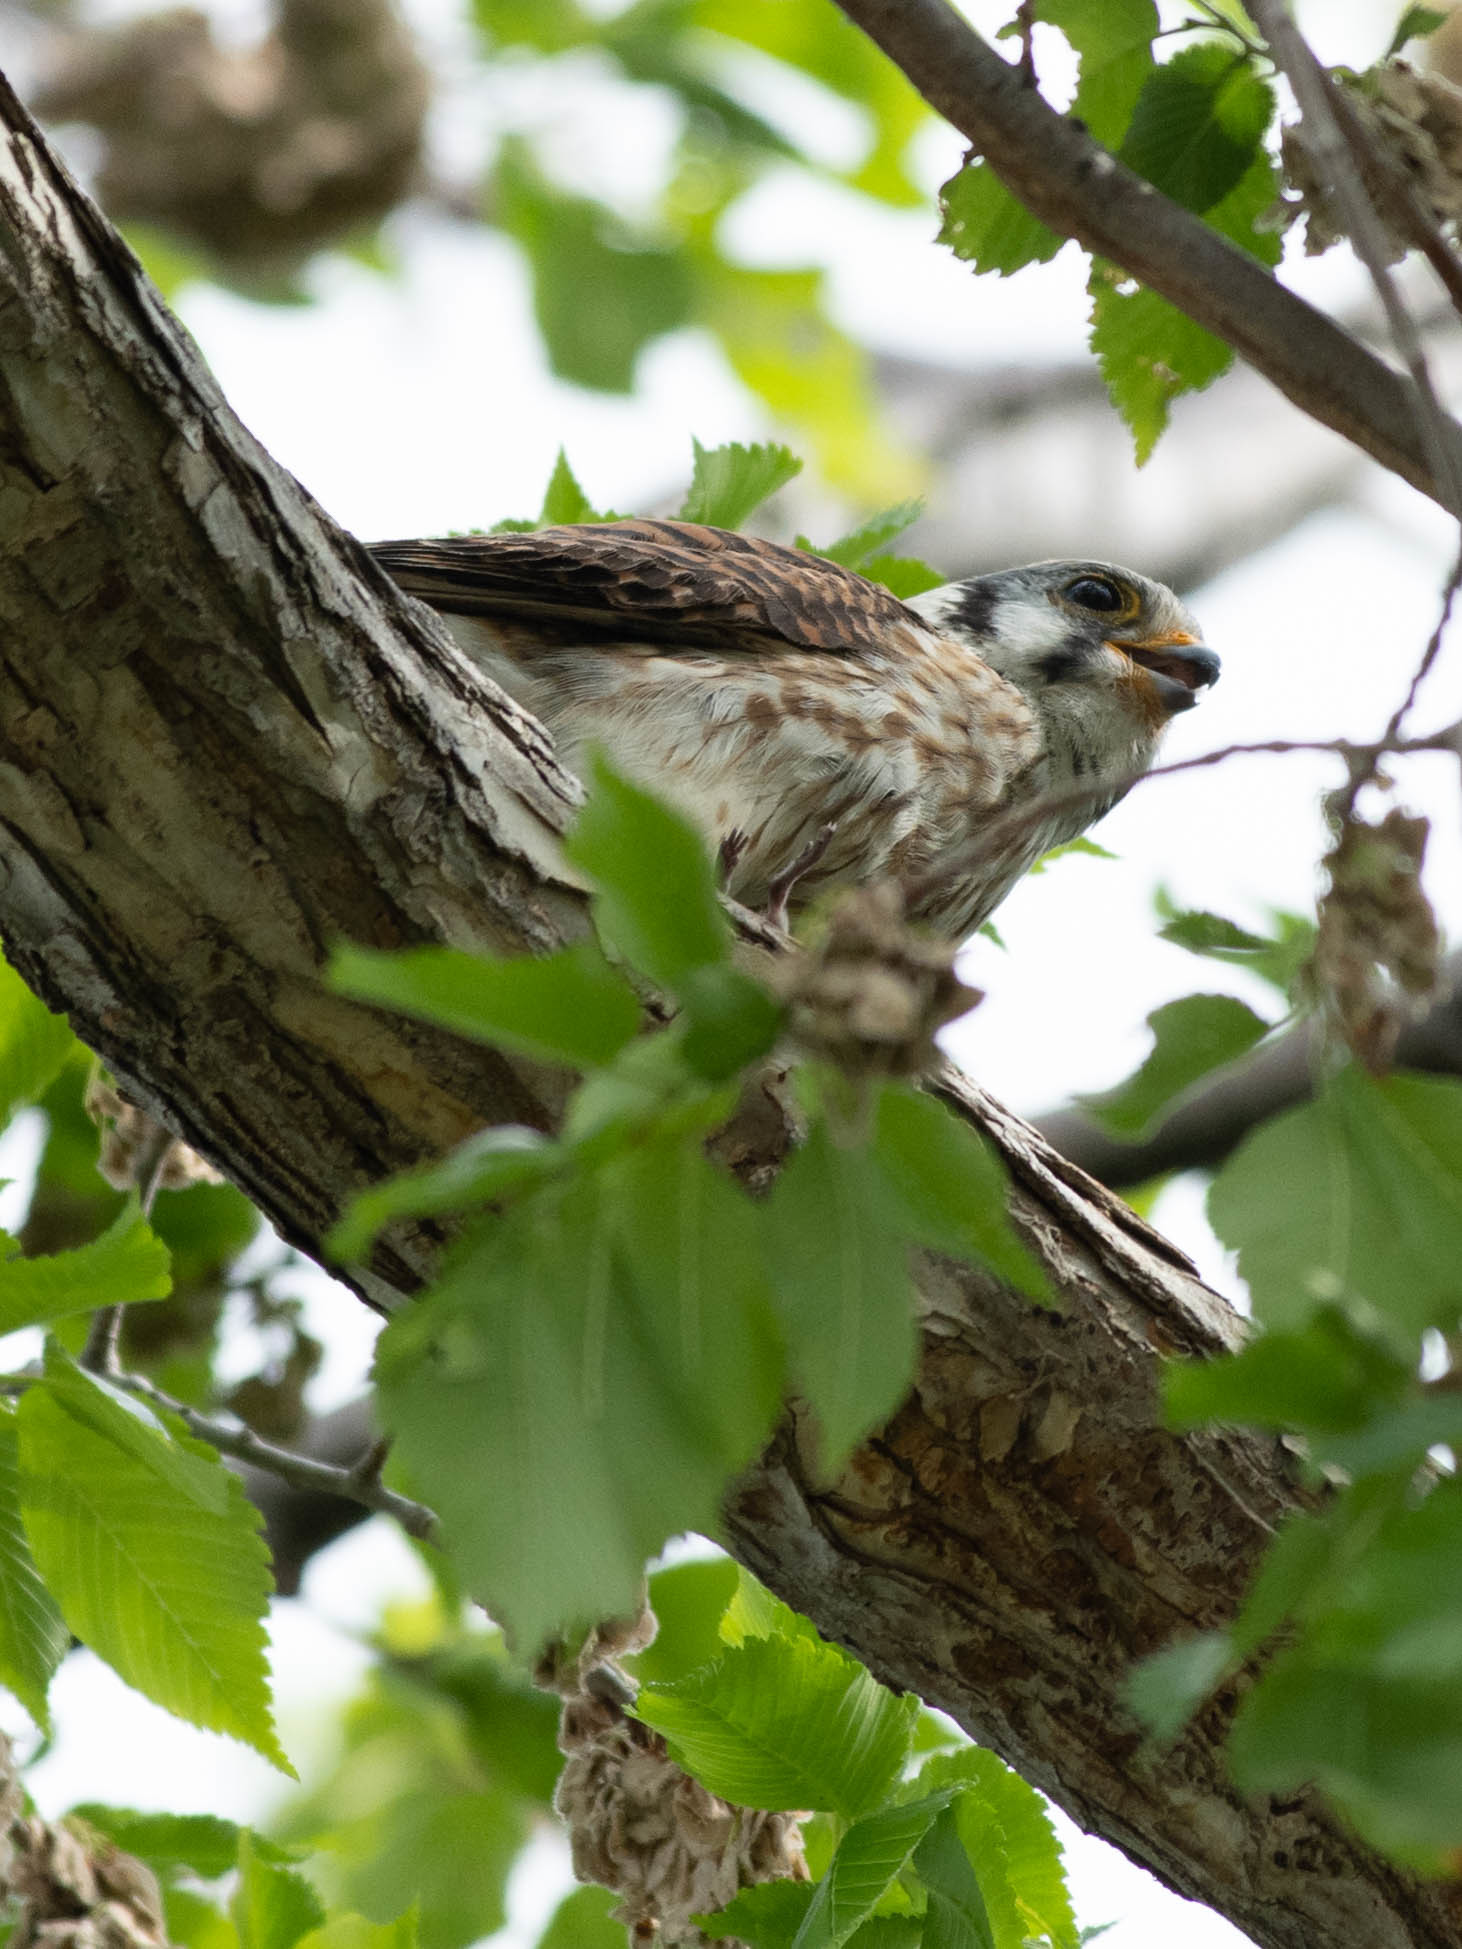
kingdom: Animalia
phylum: Chordata
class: Aves
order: Falconiformes
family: Falconidae
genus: Falco
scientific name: Falco sparverius
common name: American kestrel
